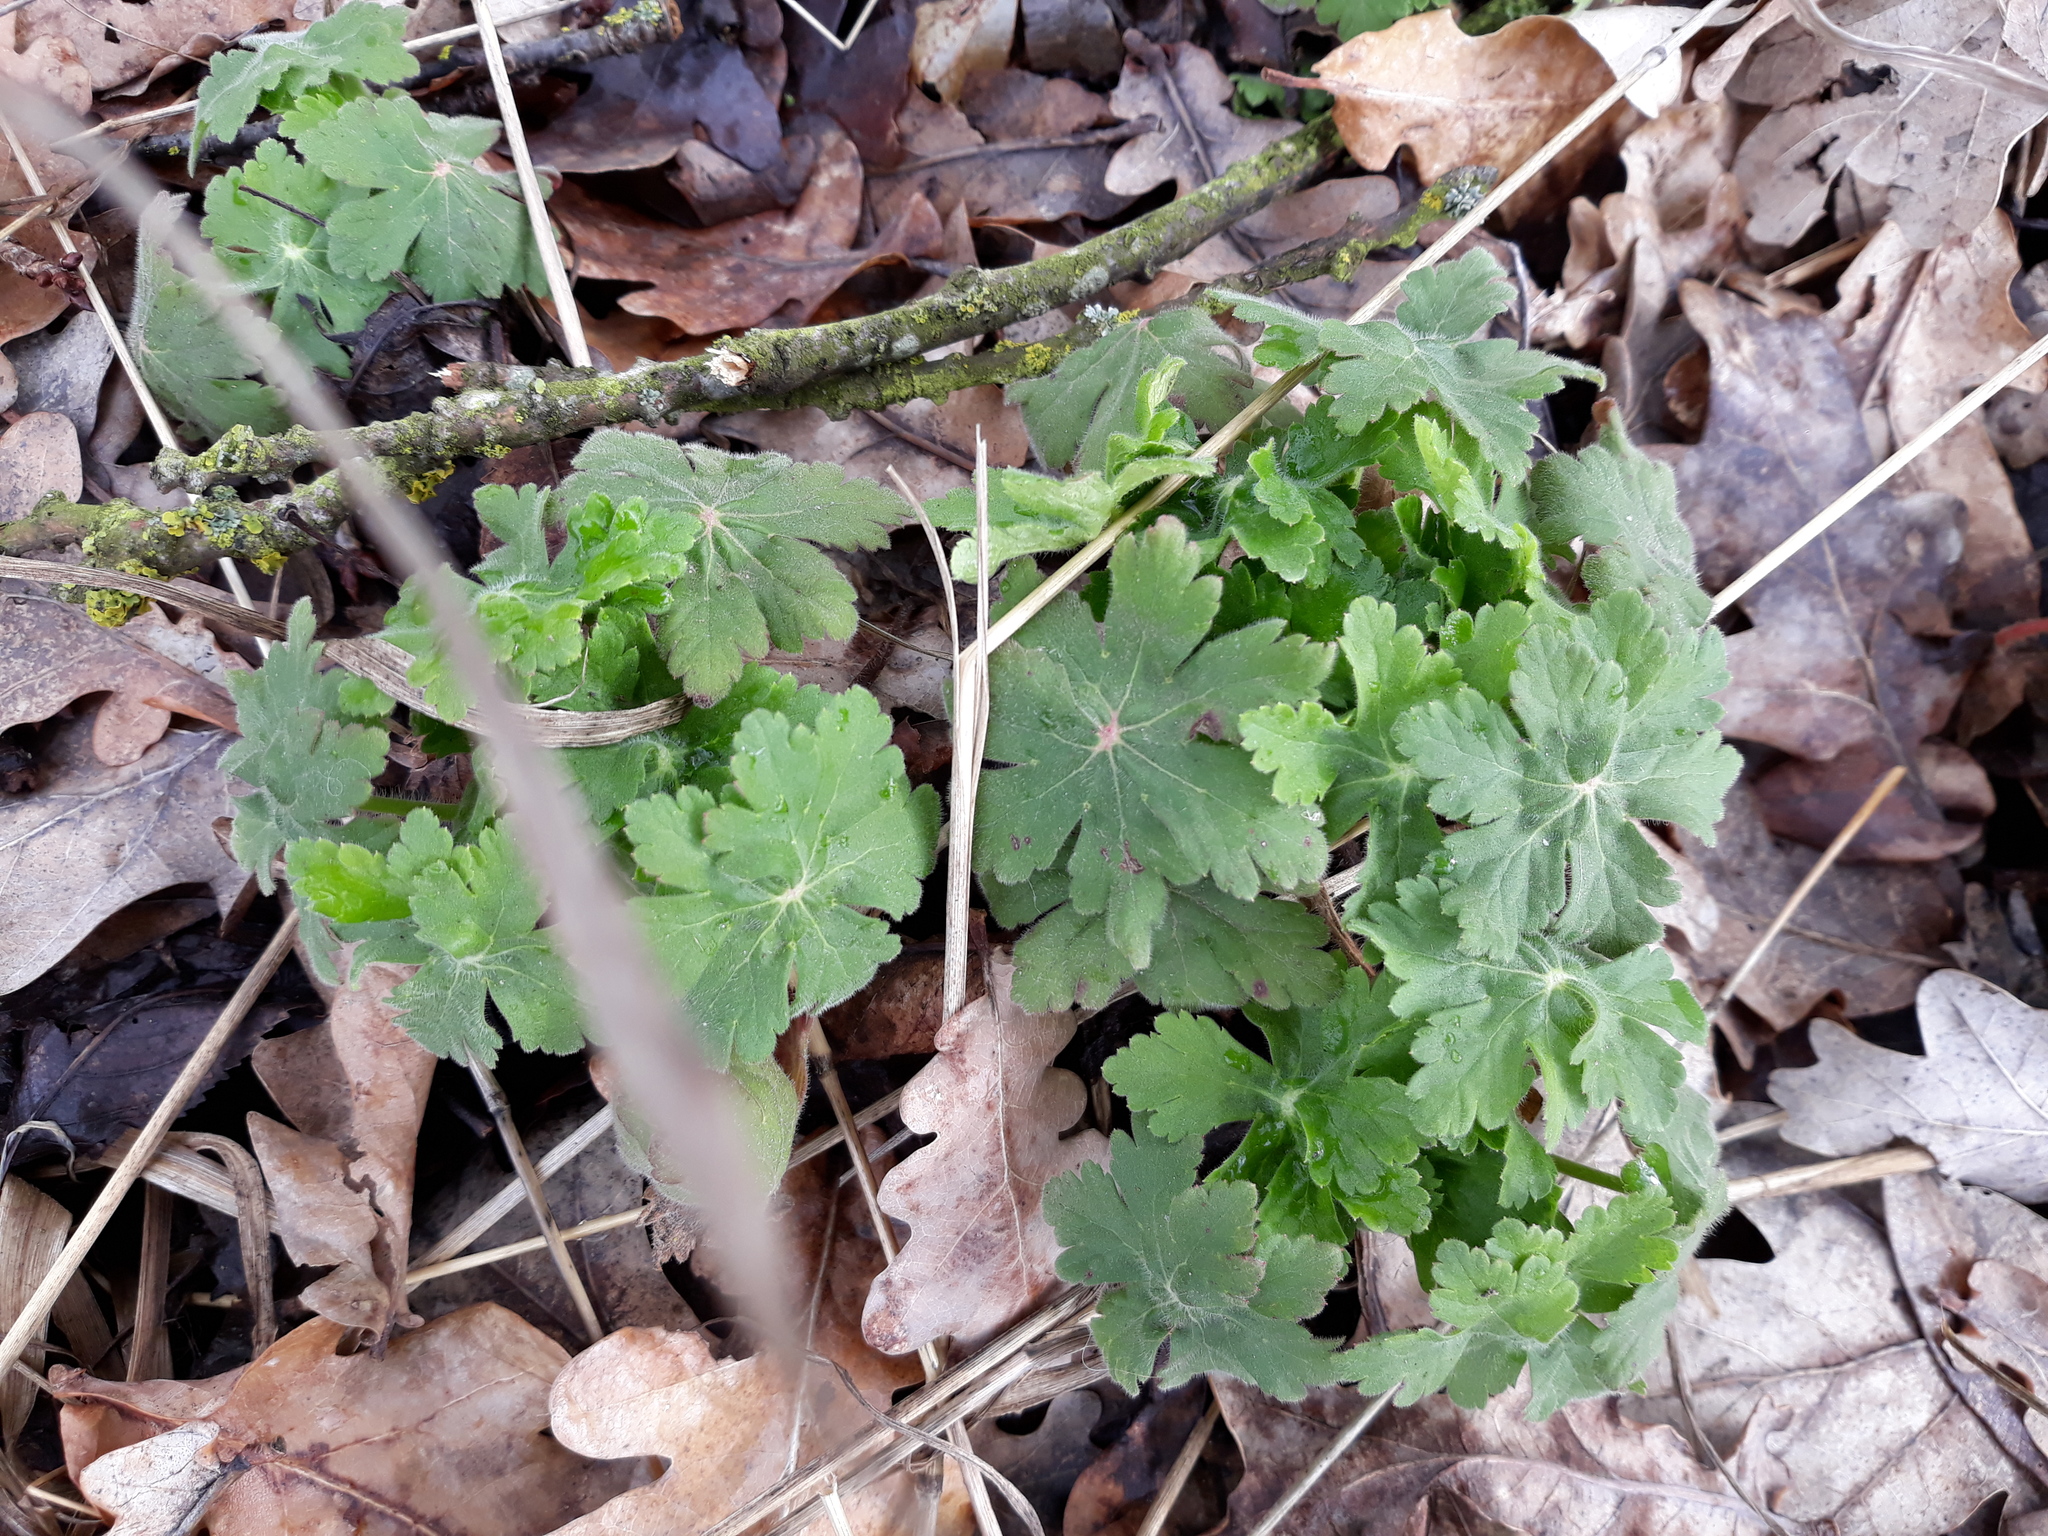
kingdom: Plantae
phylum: Tracheophyta
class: Magnoliopsida
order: Geraniales
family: Geraniaceae
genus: Geranium
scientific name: Geranium macrorrhizum
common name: Rock crane's-bill
